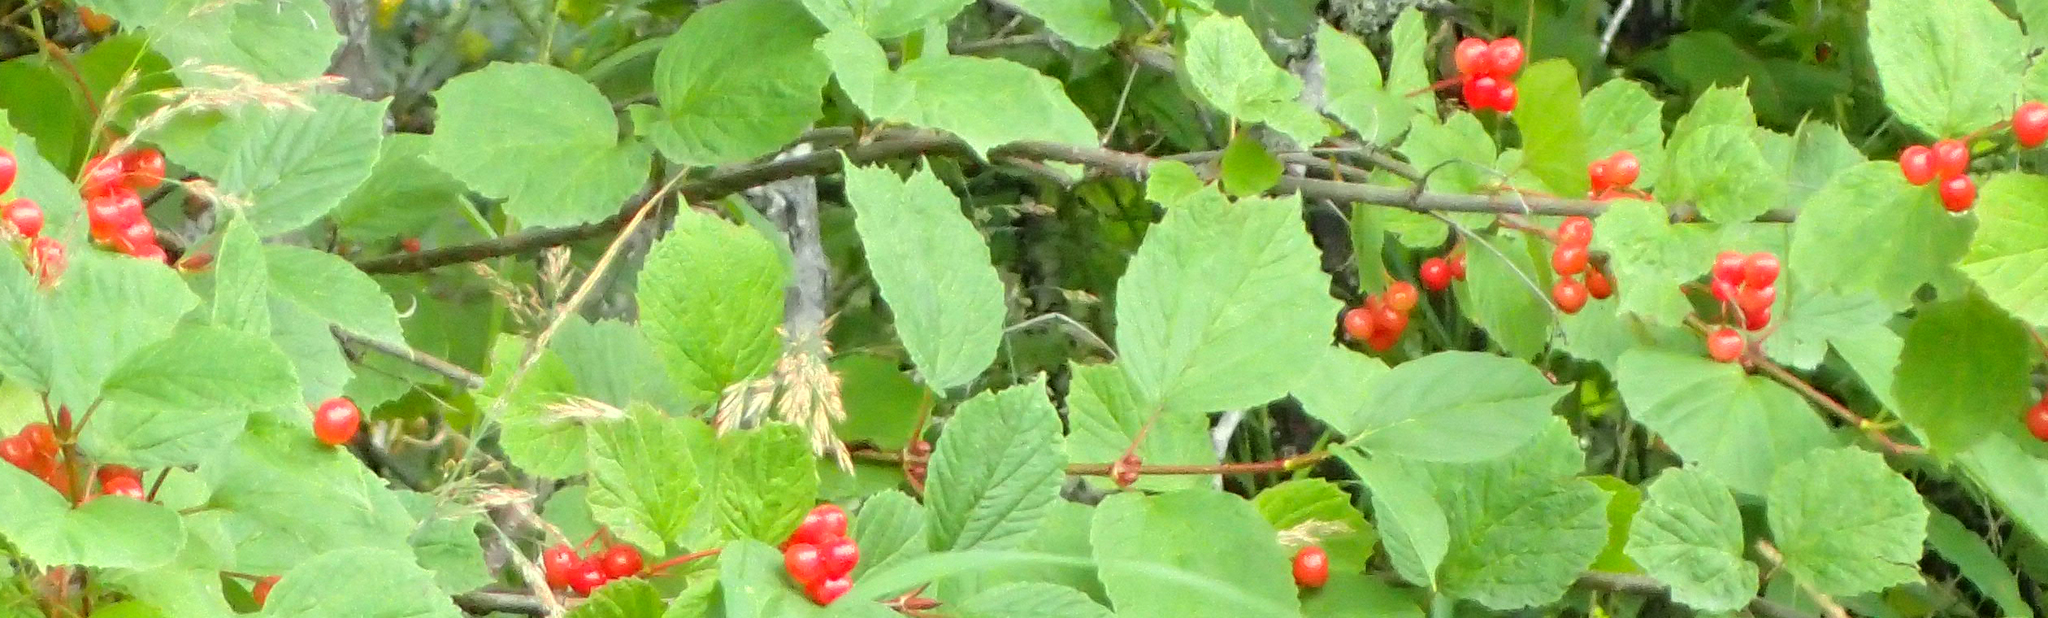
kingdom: Plantae
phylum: Tracheophyta
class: Magnoliopsida
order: Dipsacales
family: Viburnaceae
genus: Viburnum
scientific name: Viburnum edule
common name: Mooseberry
